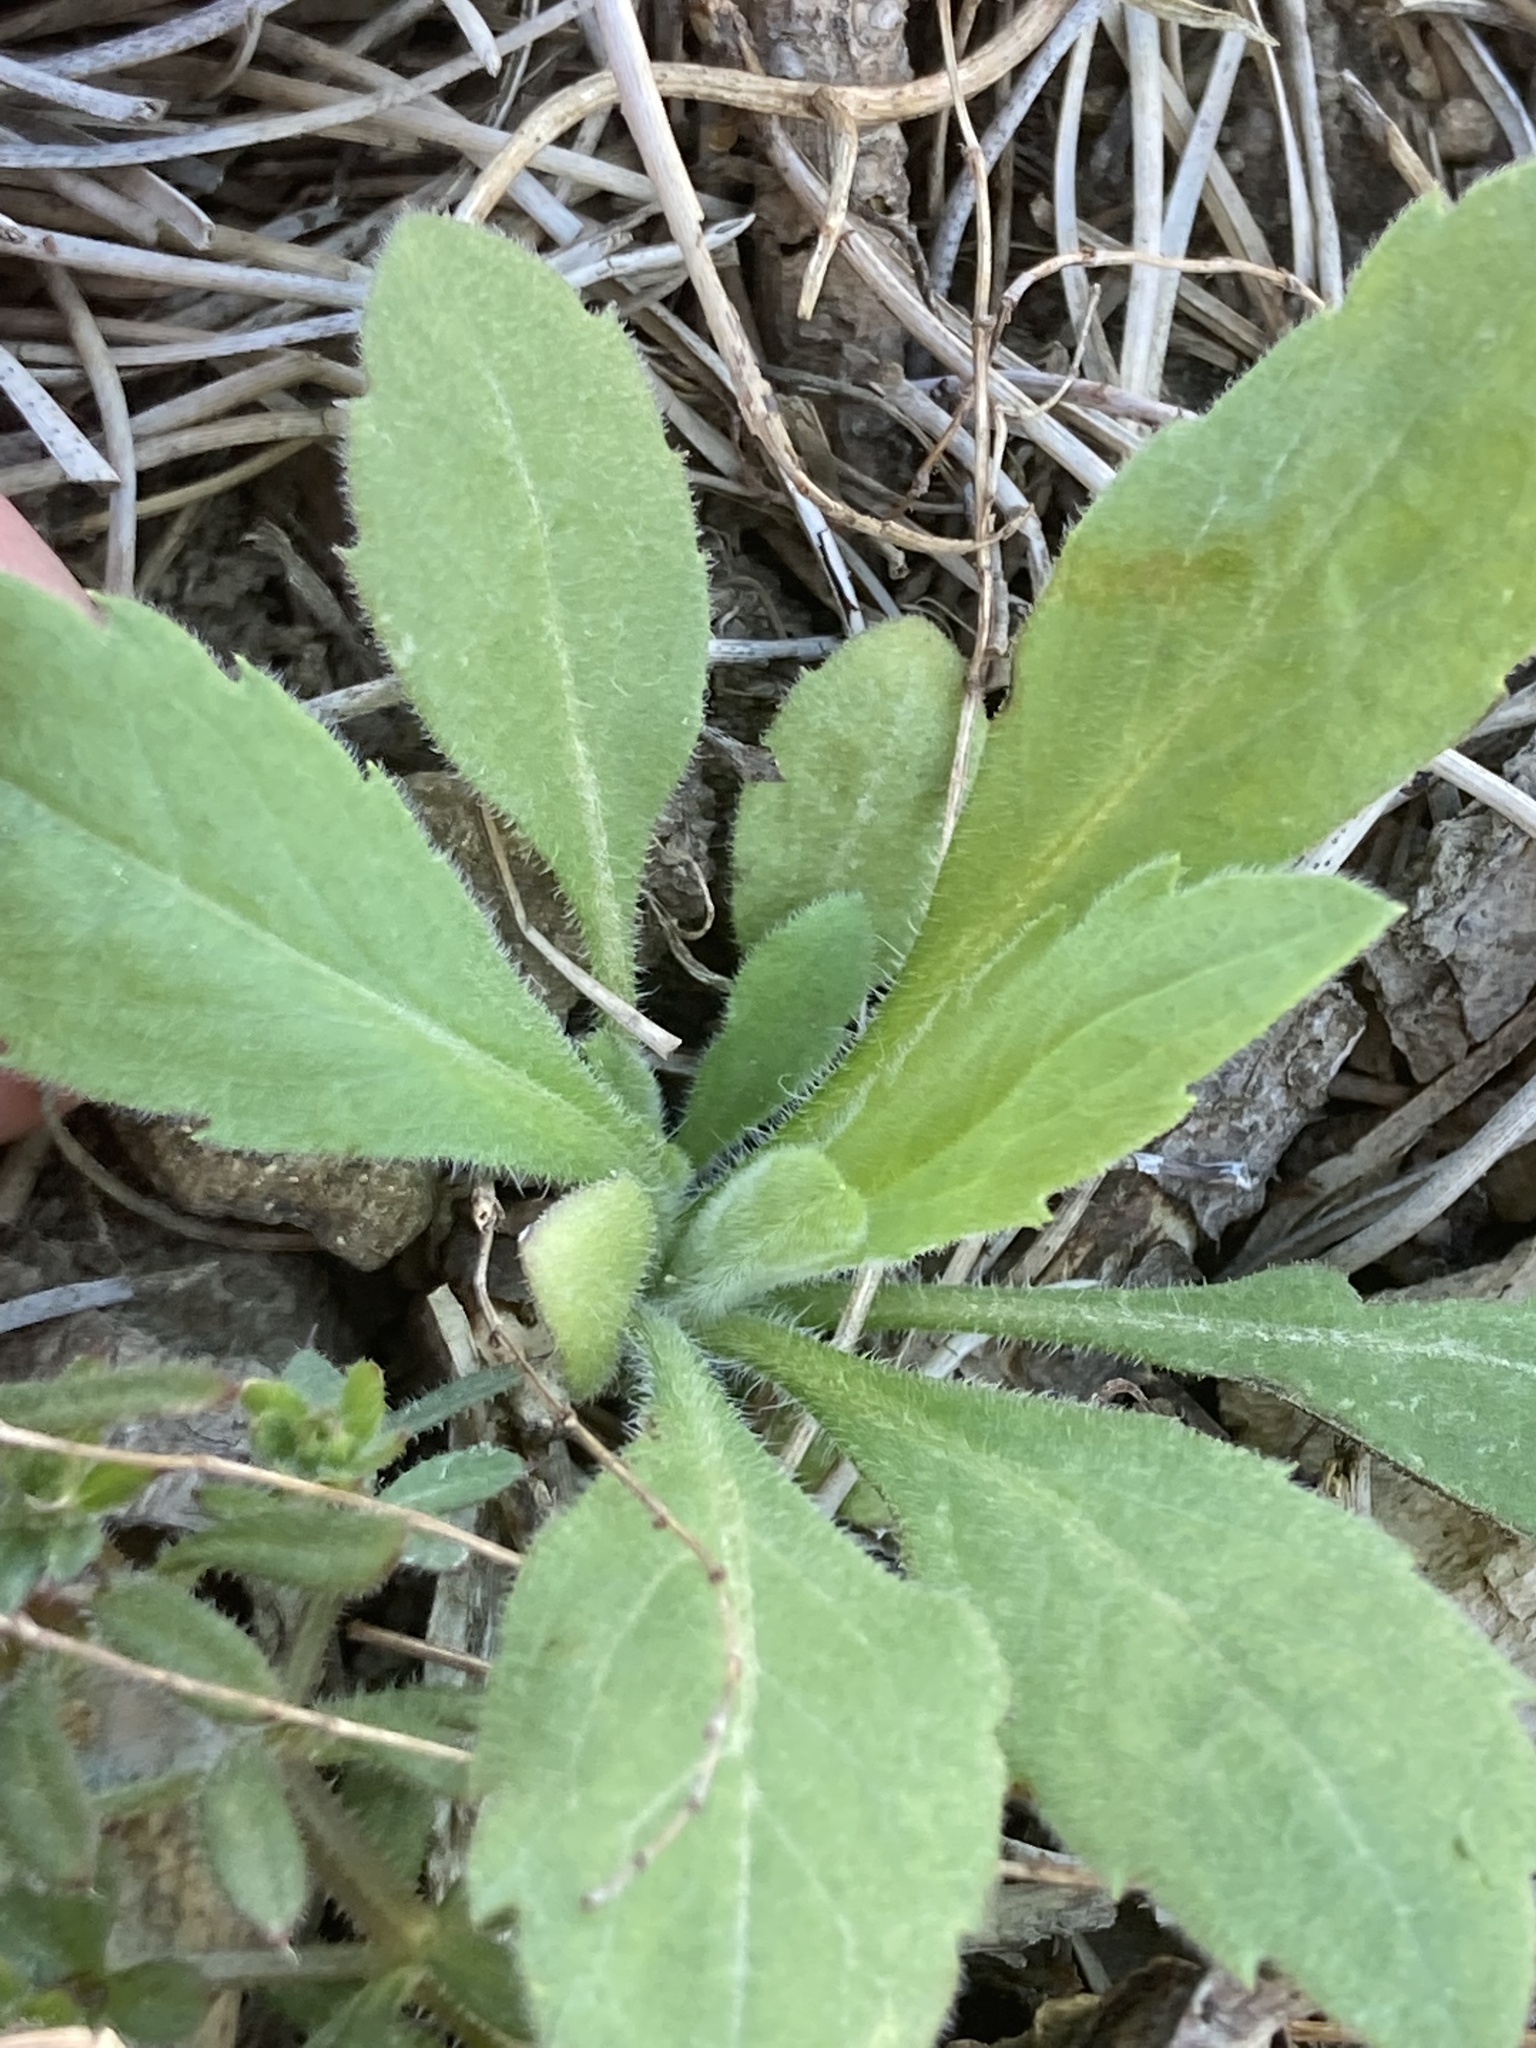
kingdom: Plantae
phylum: Tracheophyta
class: Magnoliopsida
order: Asterales
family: Asteraceae
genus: Erigeron
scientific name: Erigeron sumatrensis
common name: Daisy
